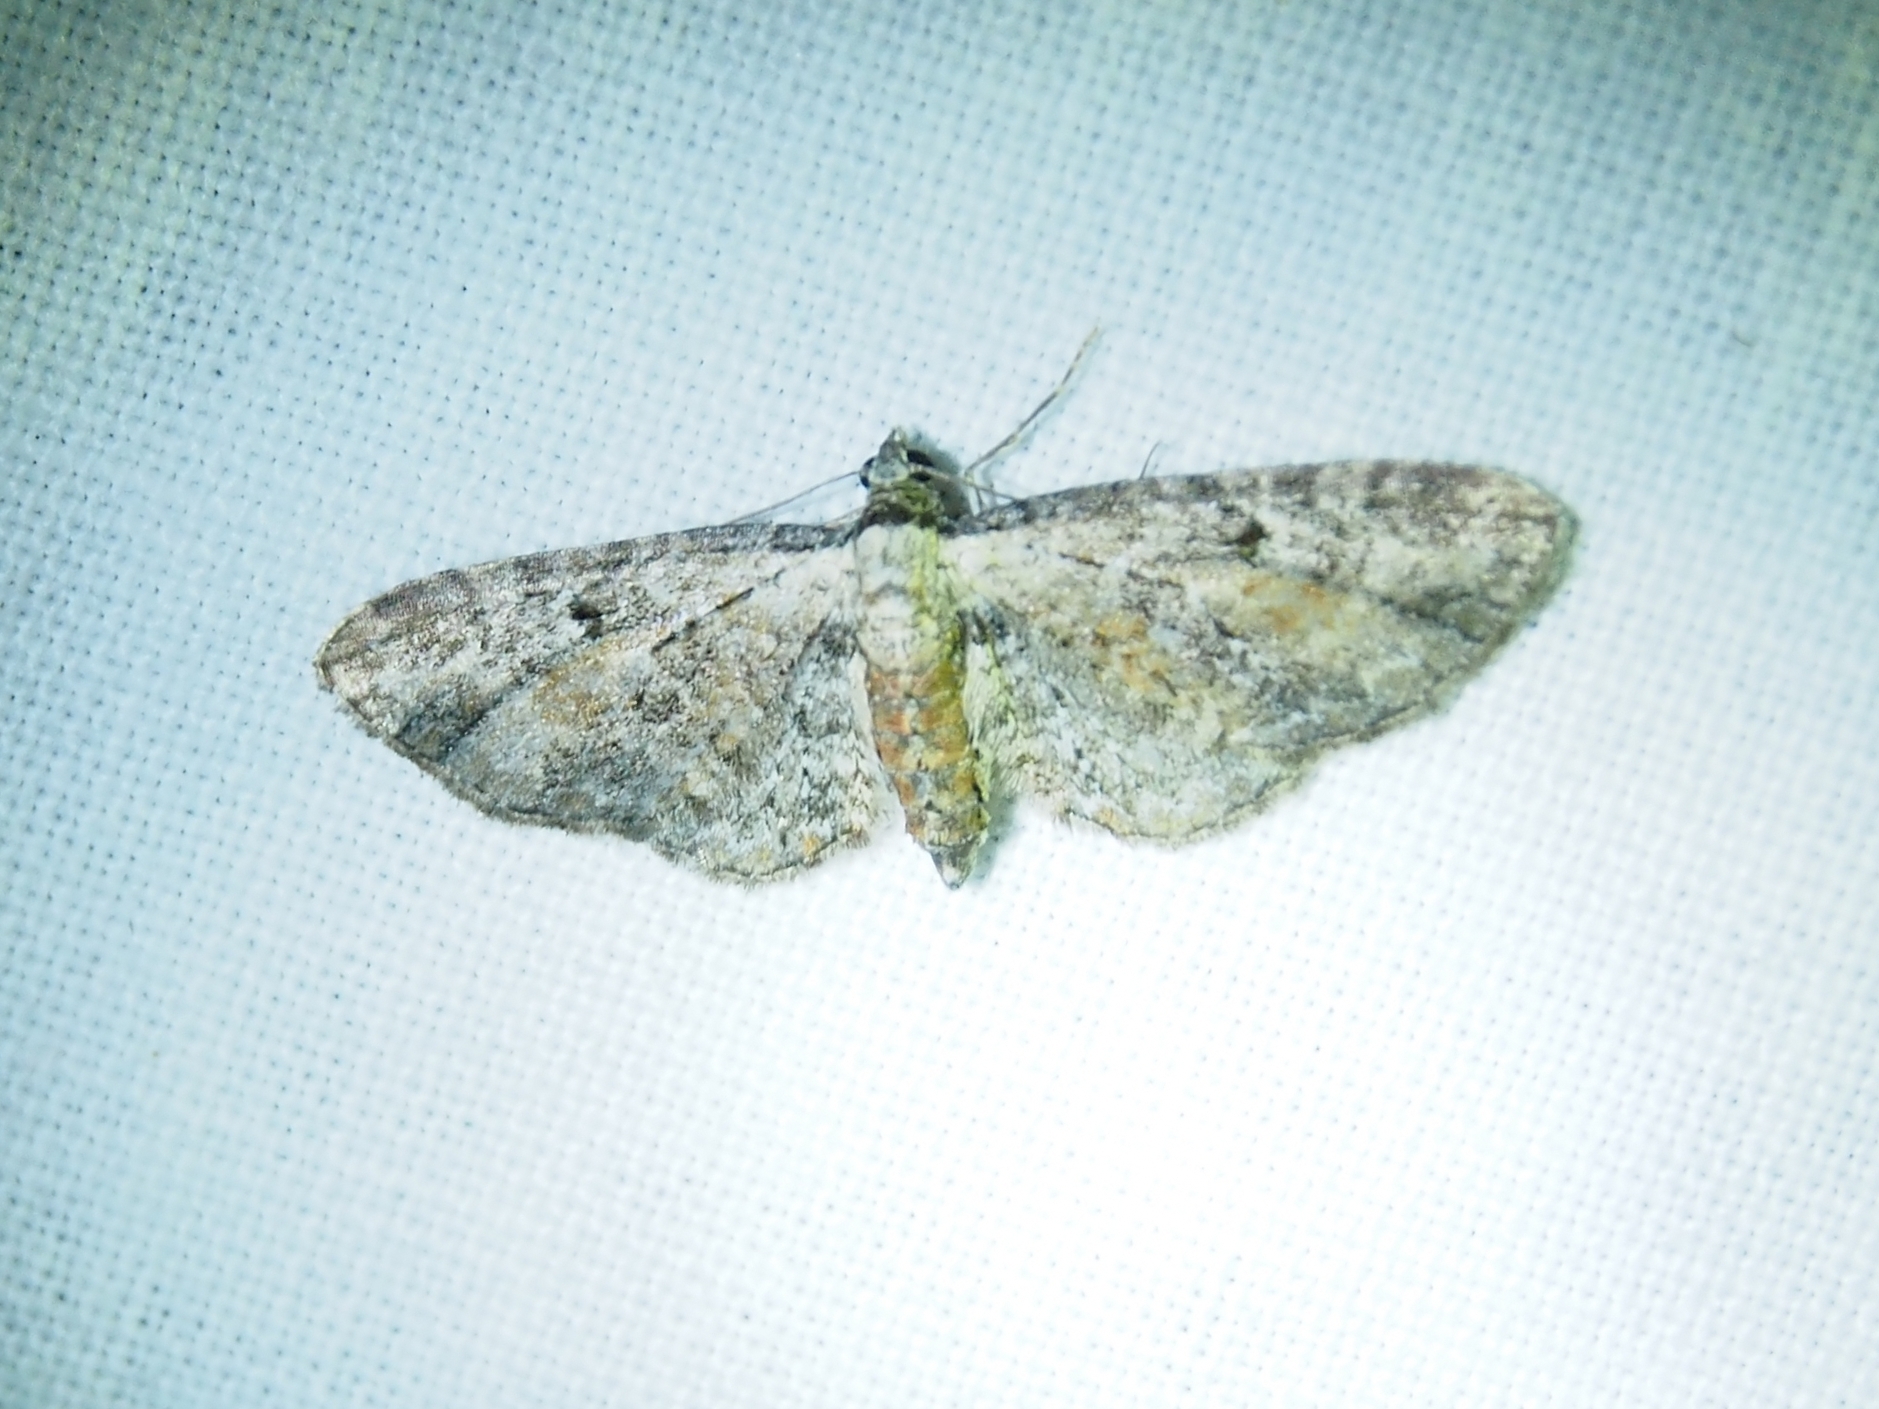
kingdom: Animalia
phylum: Arthropoda
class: Insecta
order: Lepidoptera
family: Geometridae
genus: Eupithecia
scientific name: Eupithecia icterata
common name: Tawny speckled pug
